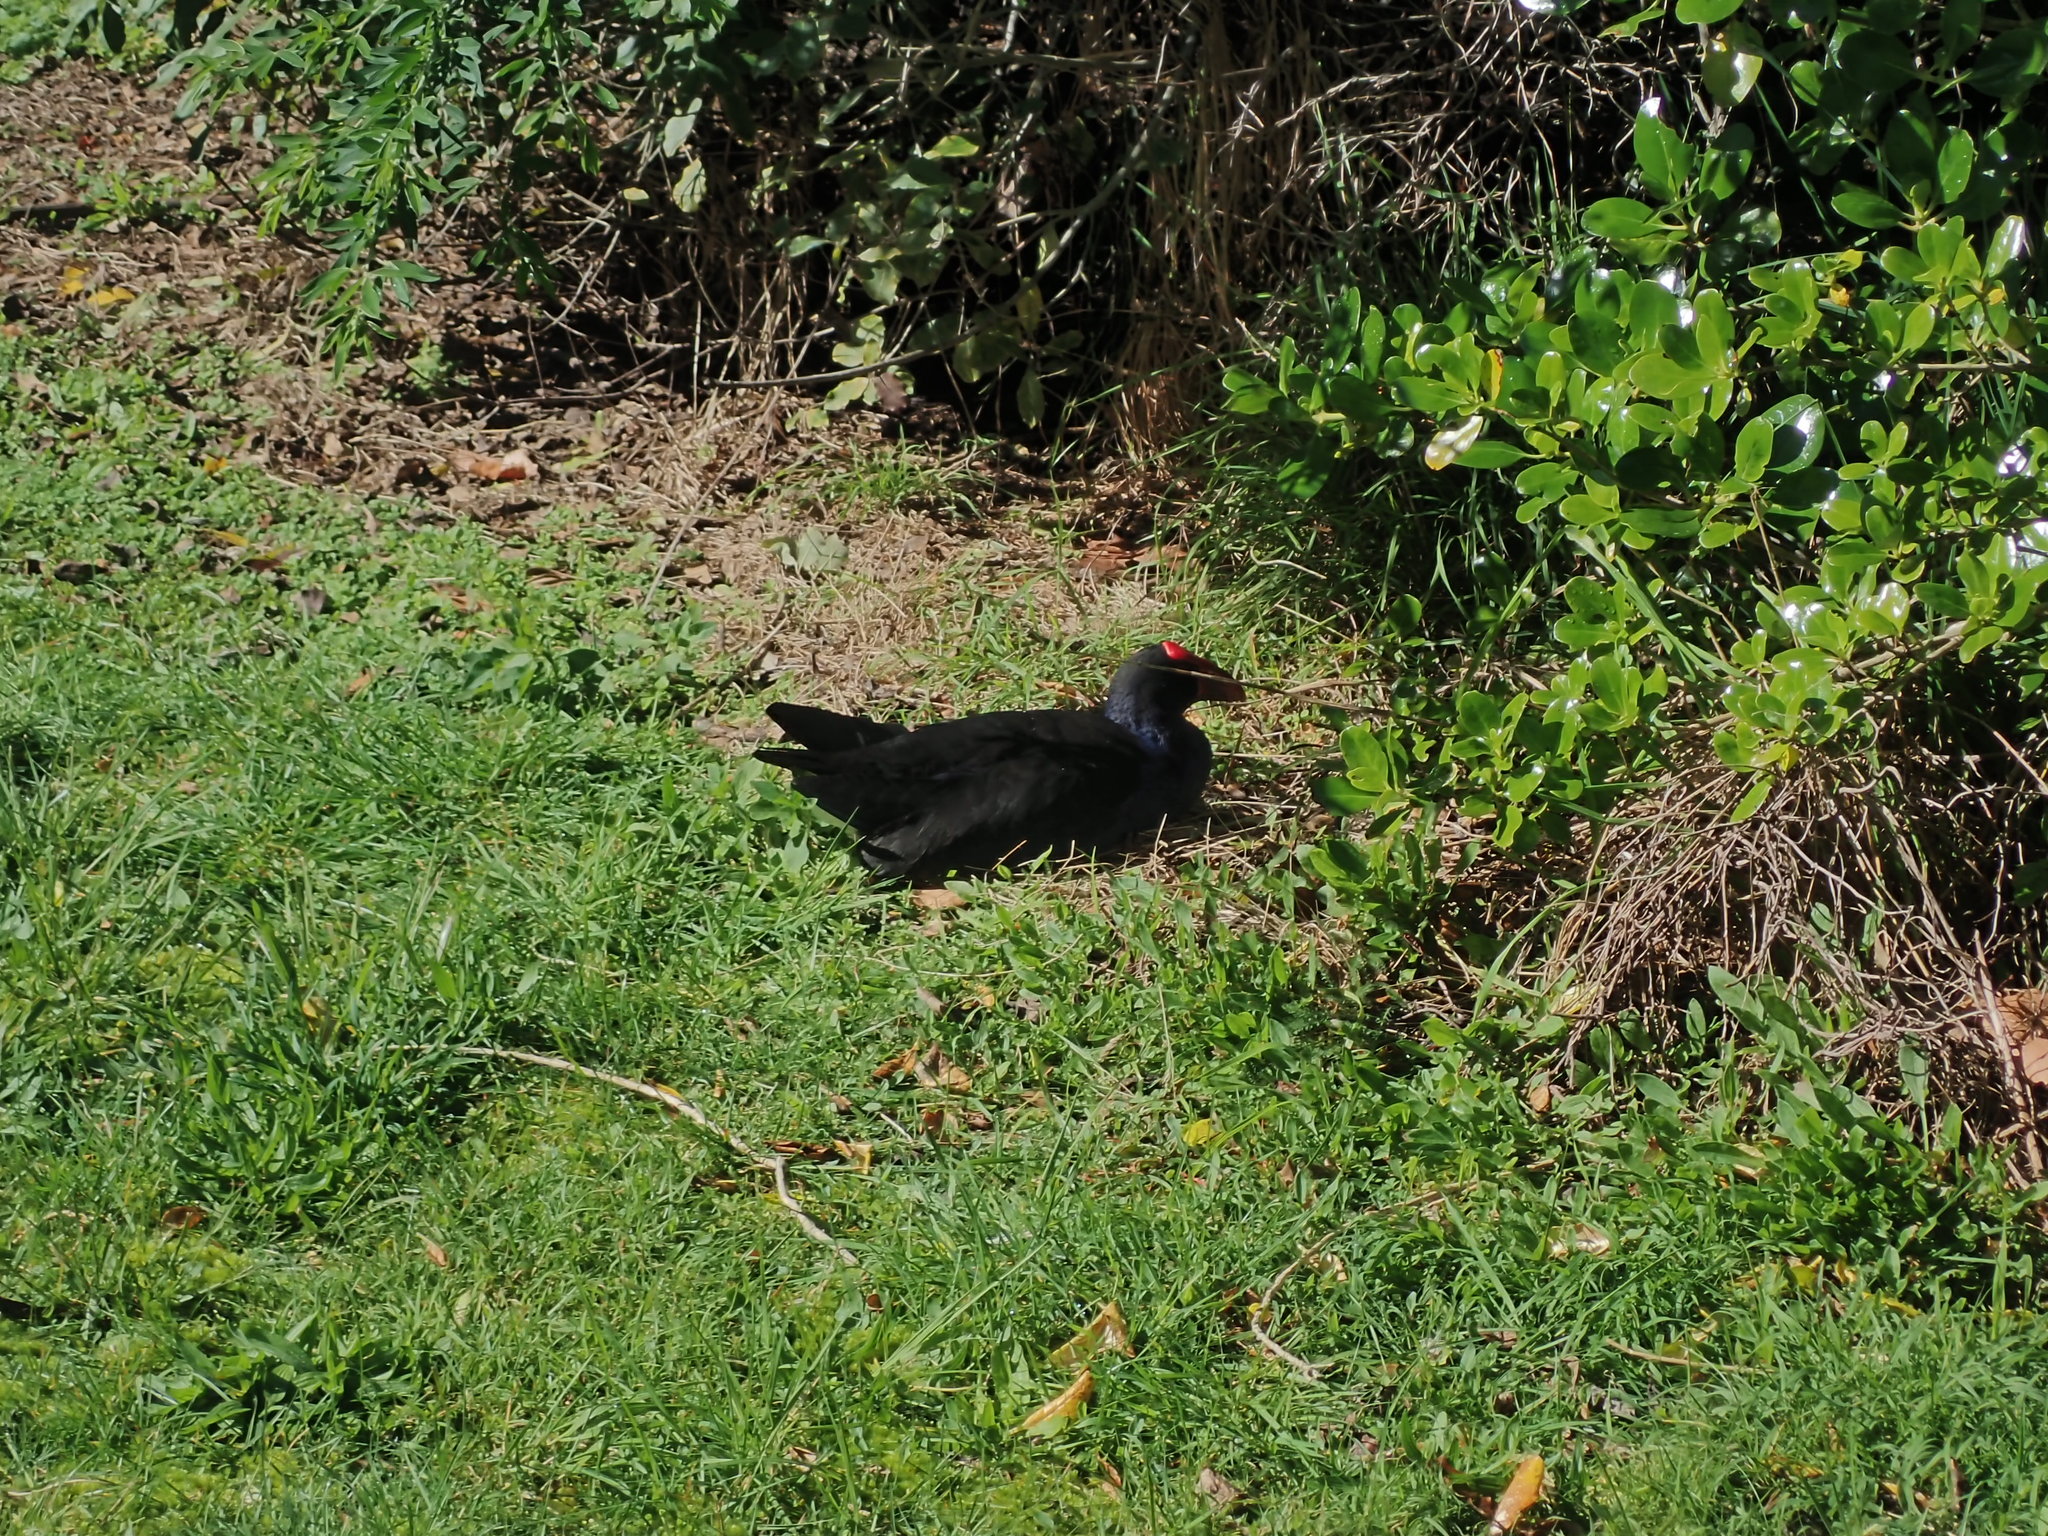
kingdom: Animalia
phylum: Chordata
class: Aves
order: Gruiformes
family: Rallidae
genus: Porphyrio
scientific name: Porphyrio melanotus
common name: Australasian swamphen
